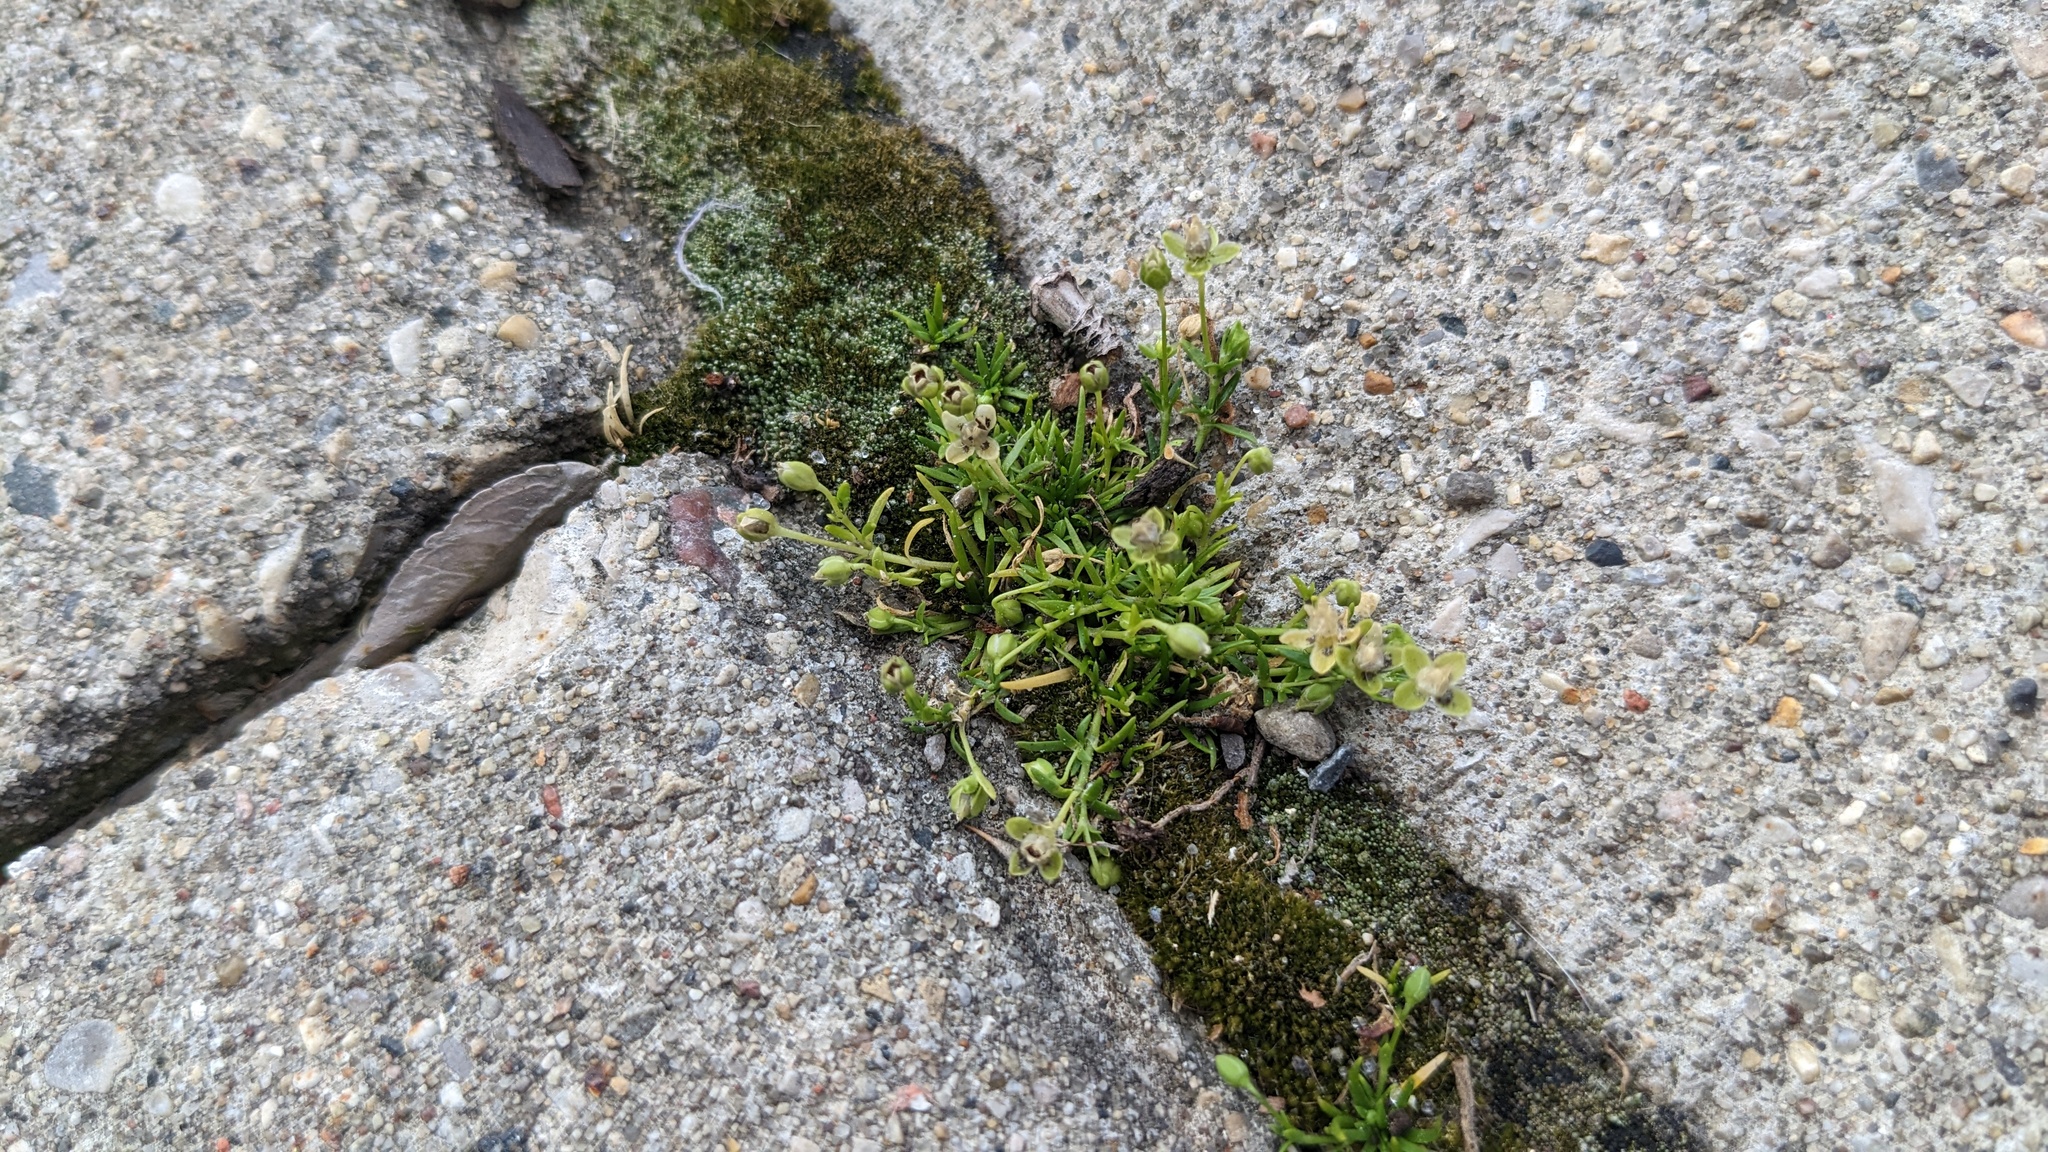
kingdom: Plantae
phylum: Tracheophyta
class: Magnoliopsida
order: Caryophyllales
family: Caryophyllaceae
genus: Sagina
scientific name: Sagina procumbens
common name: Procumbent pearlwort
